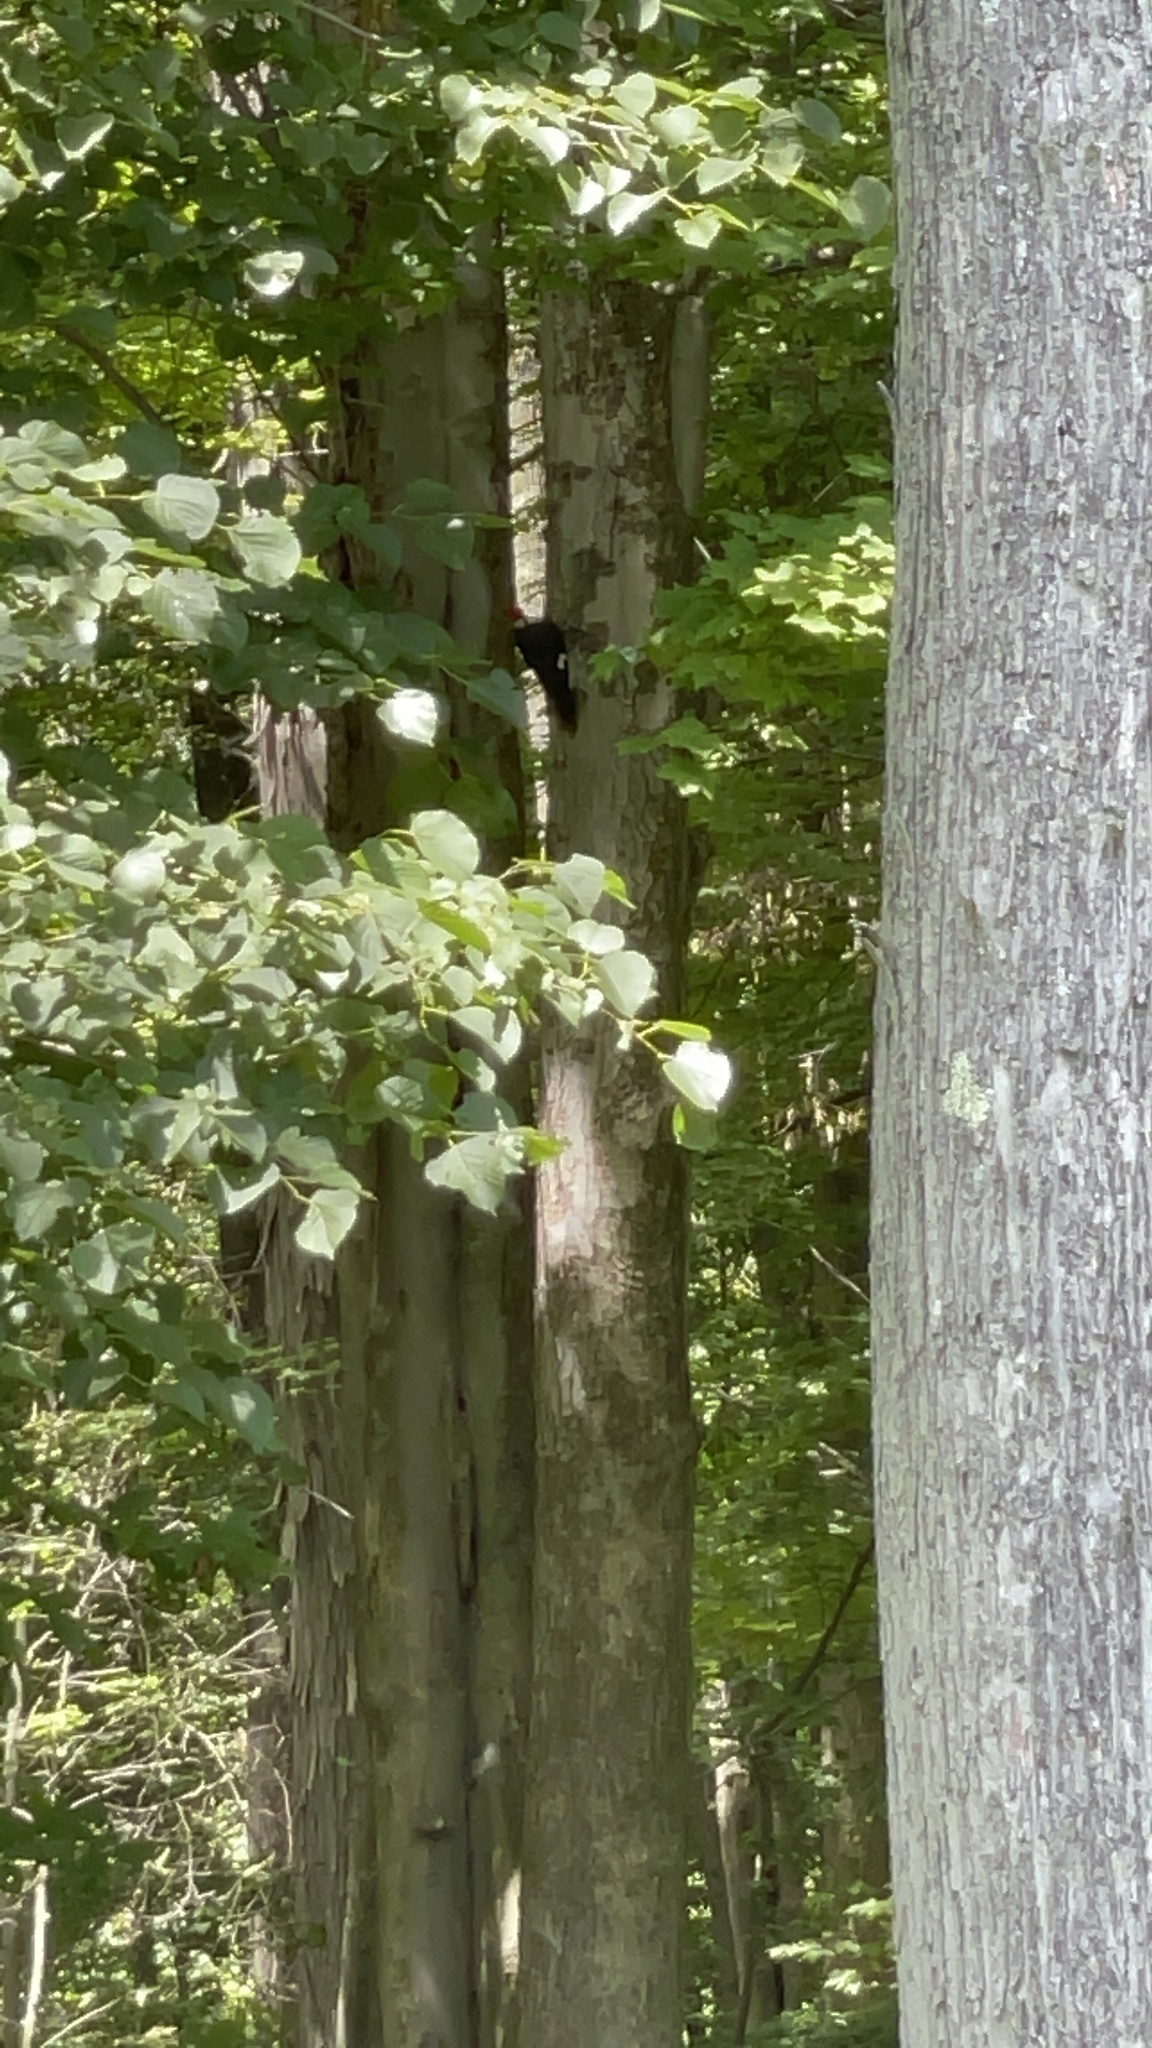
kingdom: Animalia
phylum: Chordata
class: Aves
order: Piciformes
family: Picidae
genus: Dryocopus
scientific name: Dryocopus pileatus
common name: Pileated woodpecker
